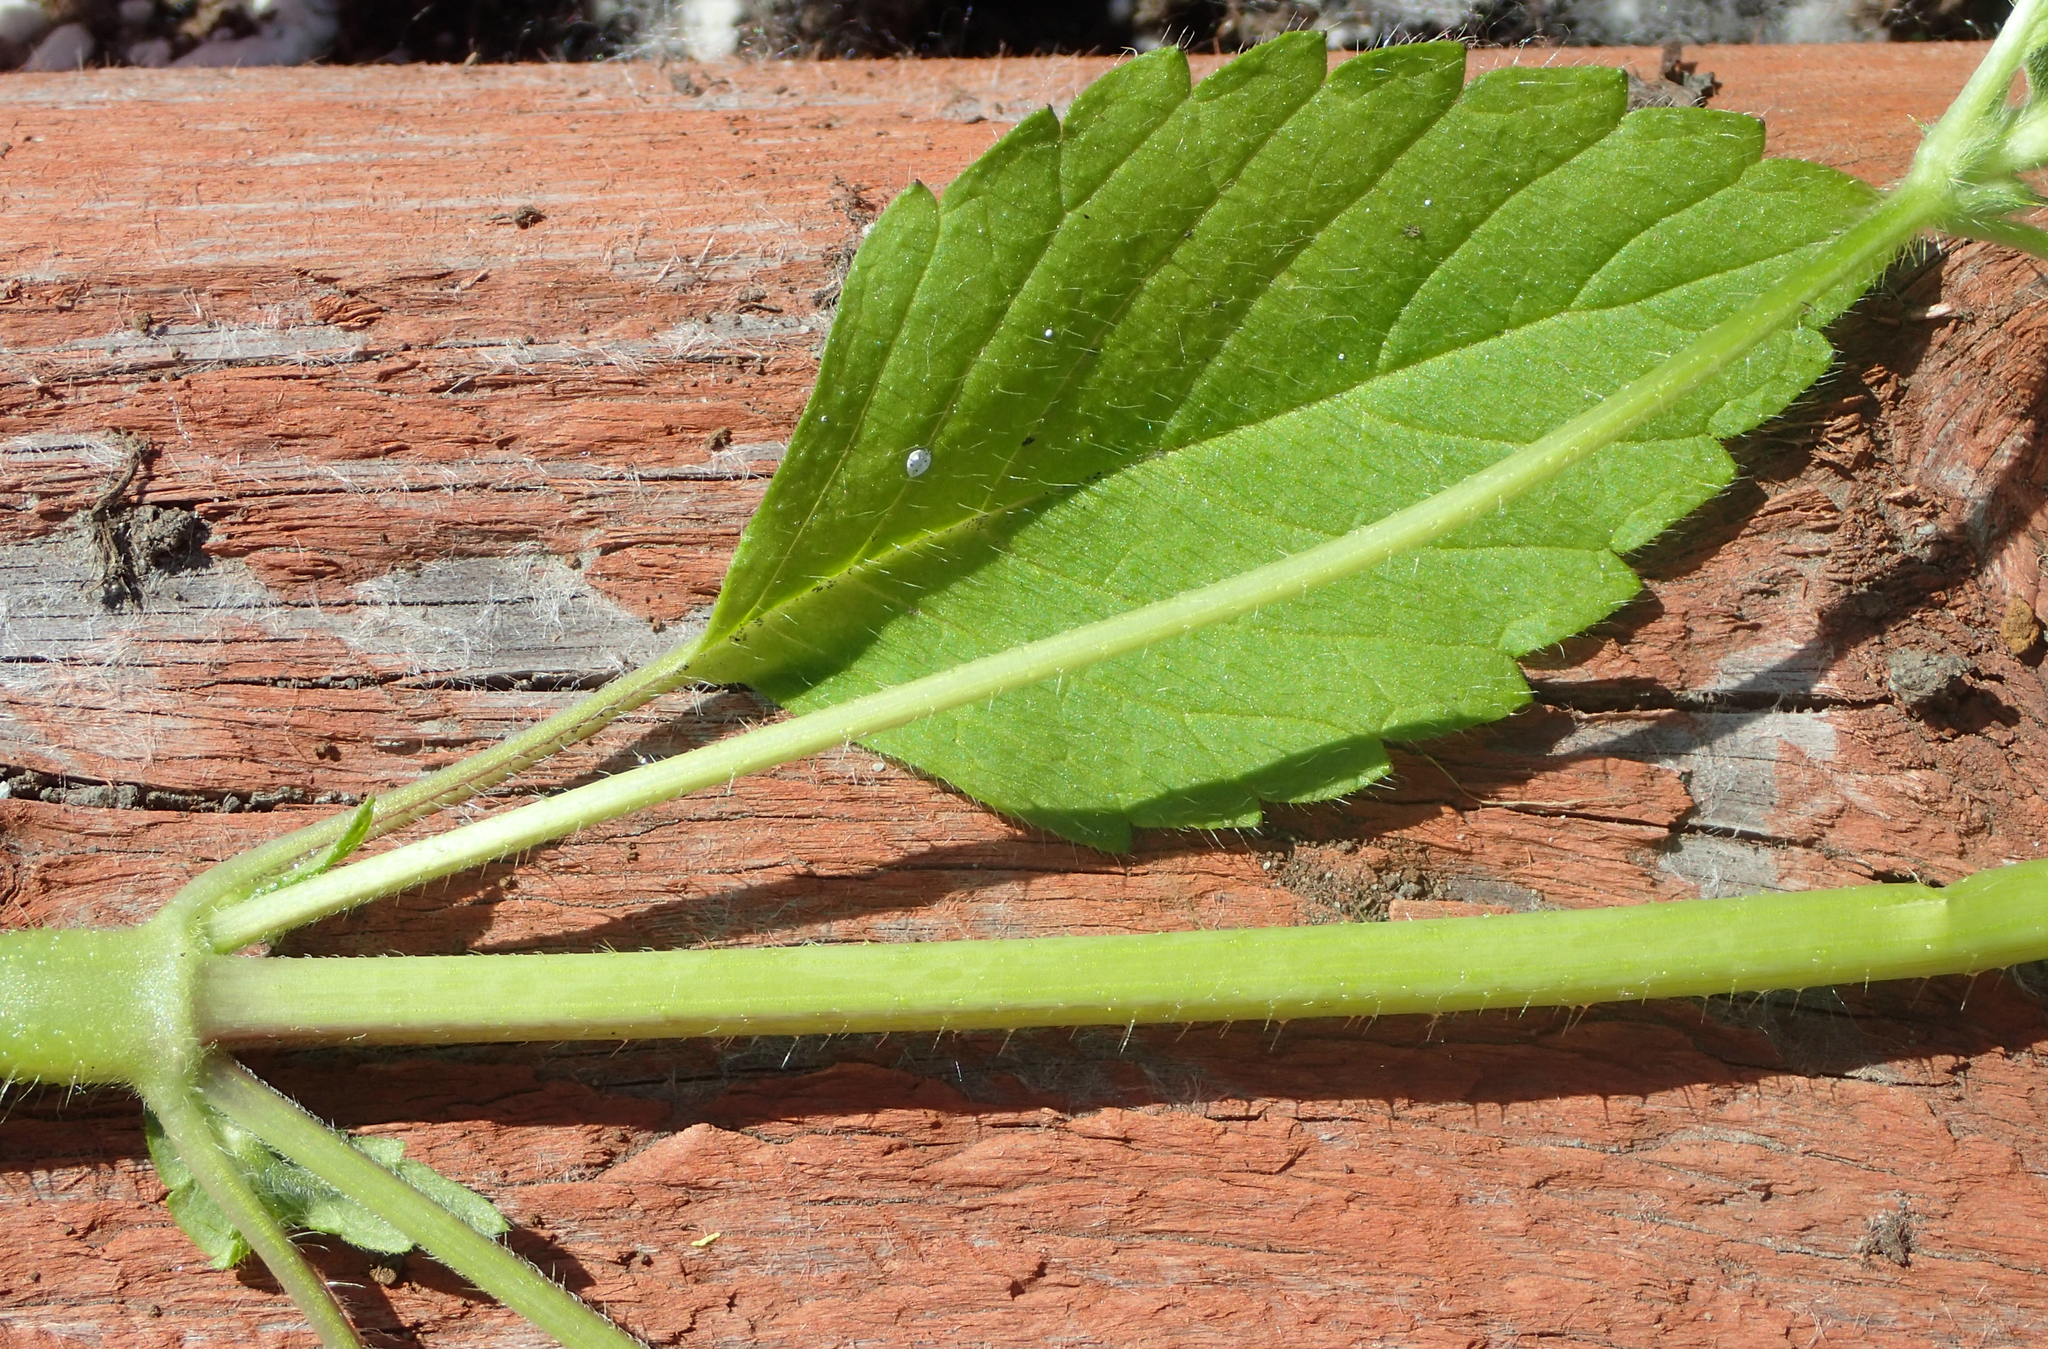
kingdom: Plantae
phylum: Tracheophyta
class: Magnoliopsida
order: Lamiales
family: Lamiaceae
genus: Galeopsis
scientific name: Galeopsis tetrahit
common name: Common hemp-nettle
